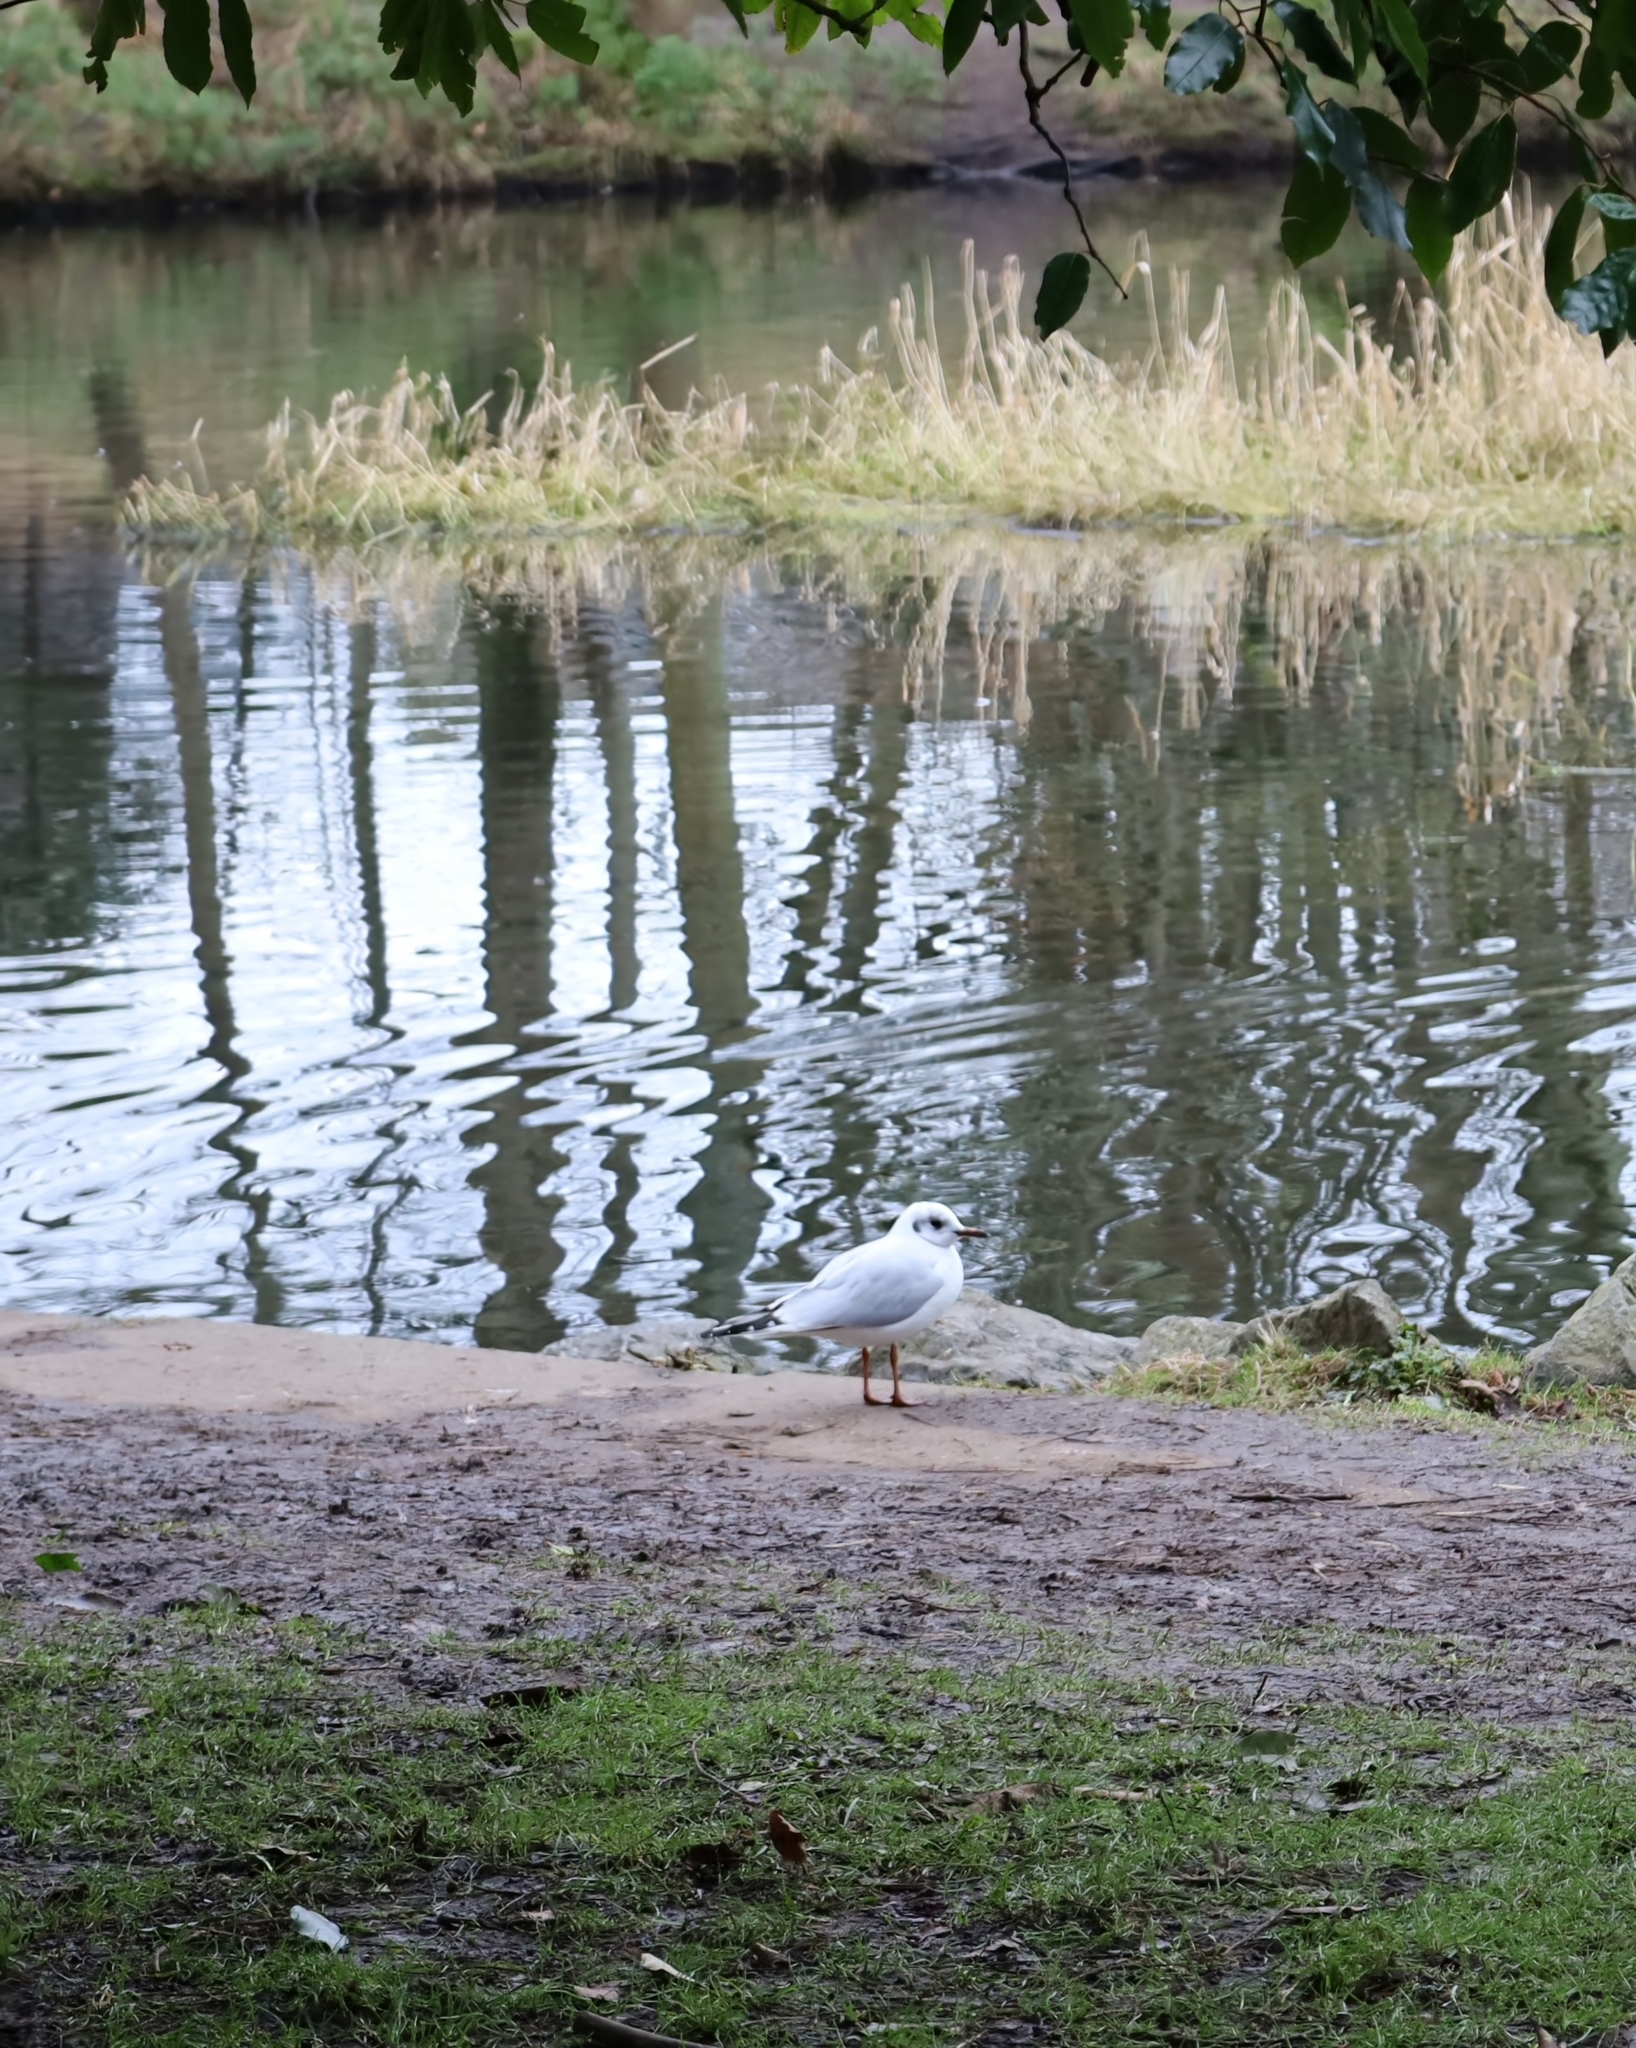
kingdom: Animalia
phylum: Chordata
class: Aves
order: Charadriiformes
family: Laridae
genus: Chroicocephalus
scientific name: Chroicocephalus ridibundus
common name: Black-headed gull
